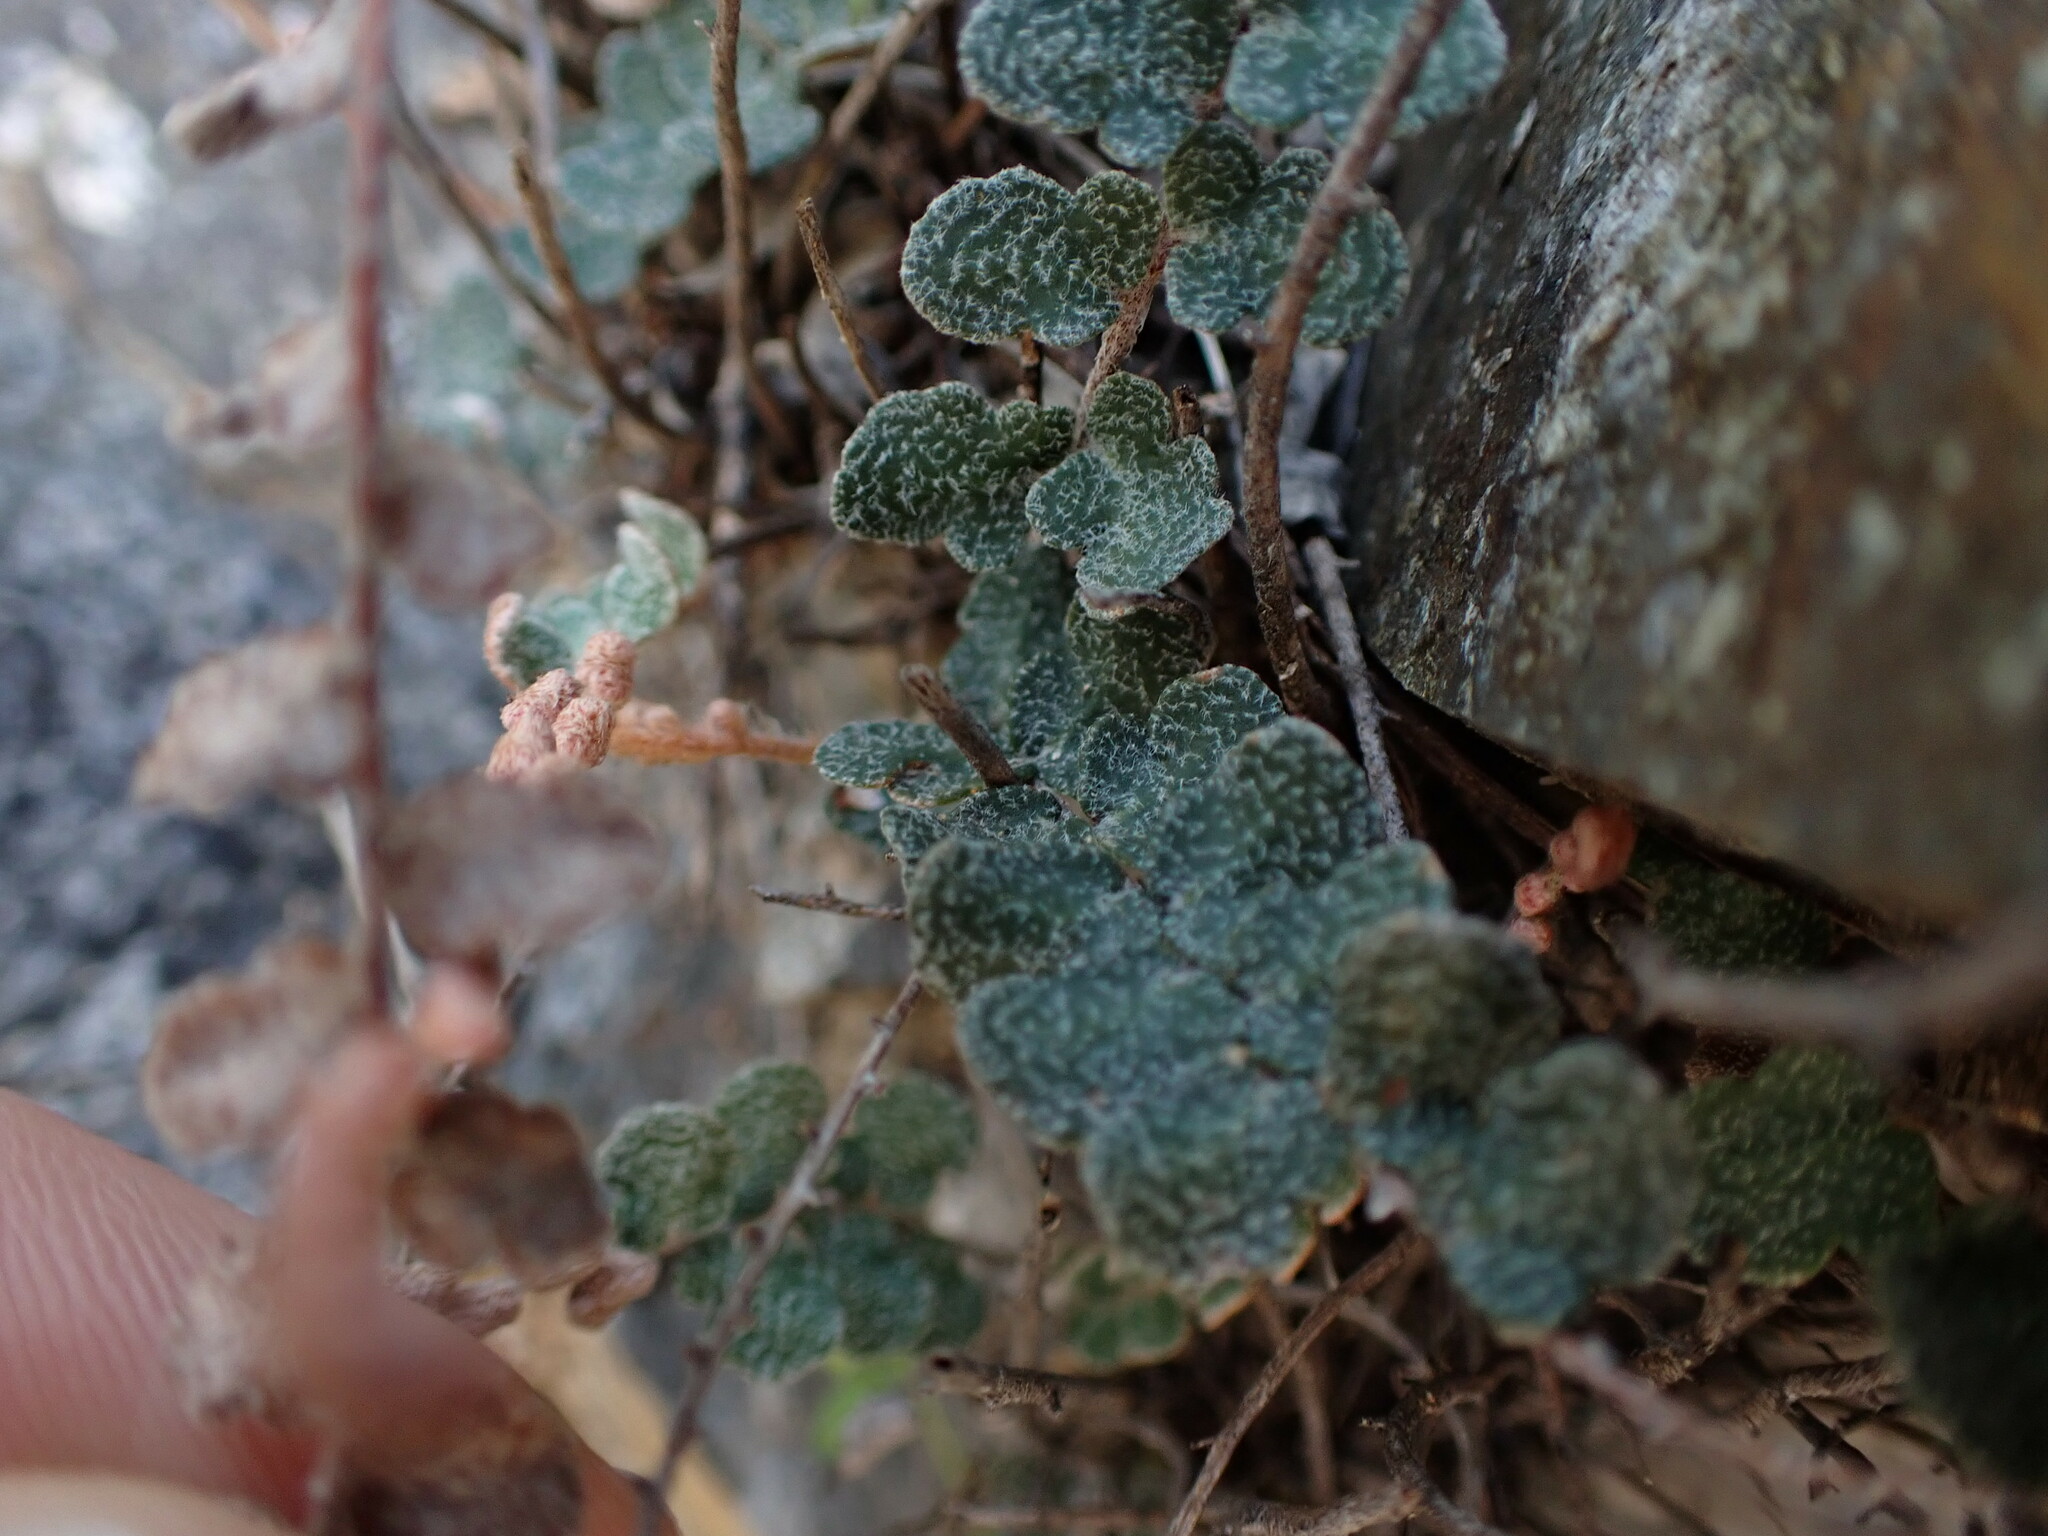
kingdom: Plantae
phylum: Tracheophyta
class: Polypodiopsida
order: Polypodiales
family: Pteridaceae
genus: Astrolepis
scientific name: Astrolepis cochisensis
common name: Scaly cloak fern
